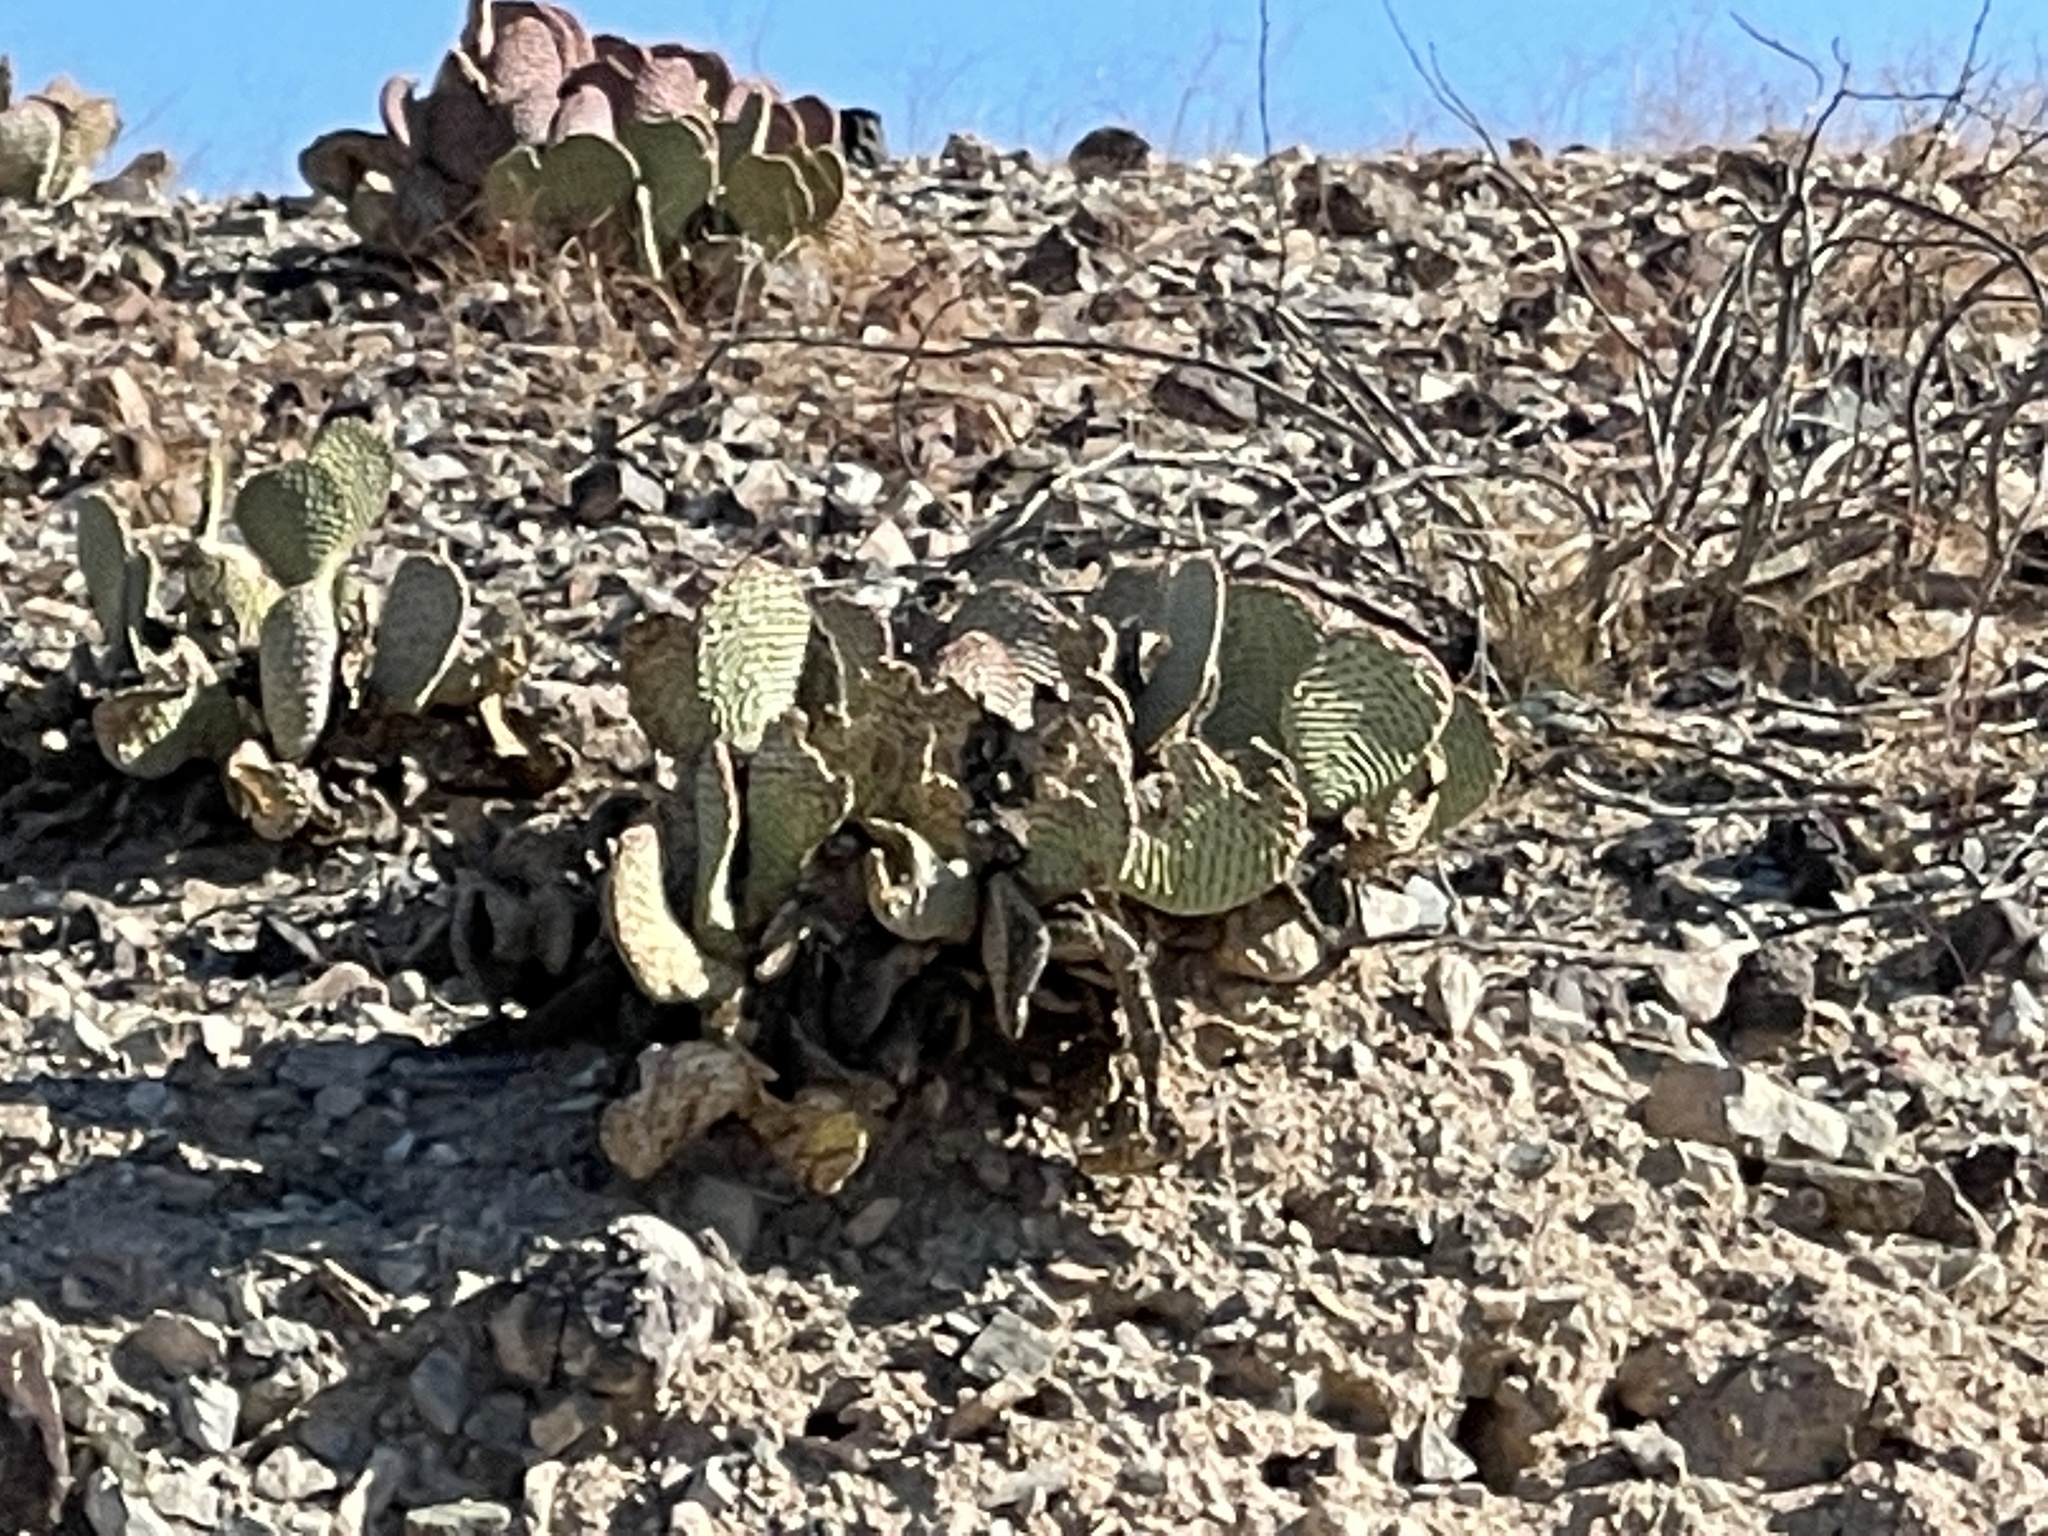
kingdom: Plantae
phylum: Tracheophyta
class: Magnoliopsida
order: Caryophyllales
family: Cactaceae
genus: Opuntia
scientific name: Opuntia basilaris
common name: Beavertail prickly-pear
